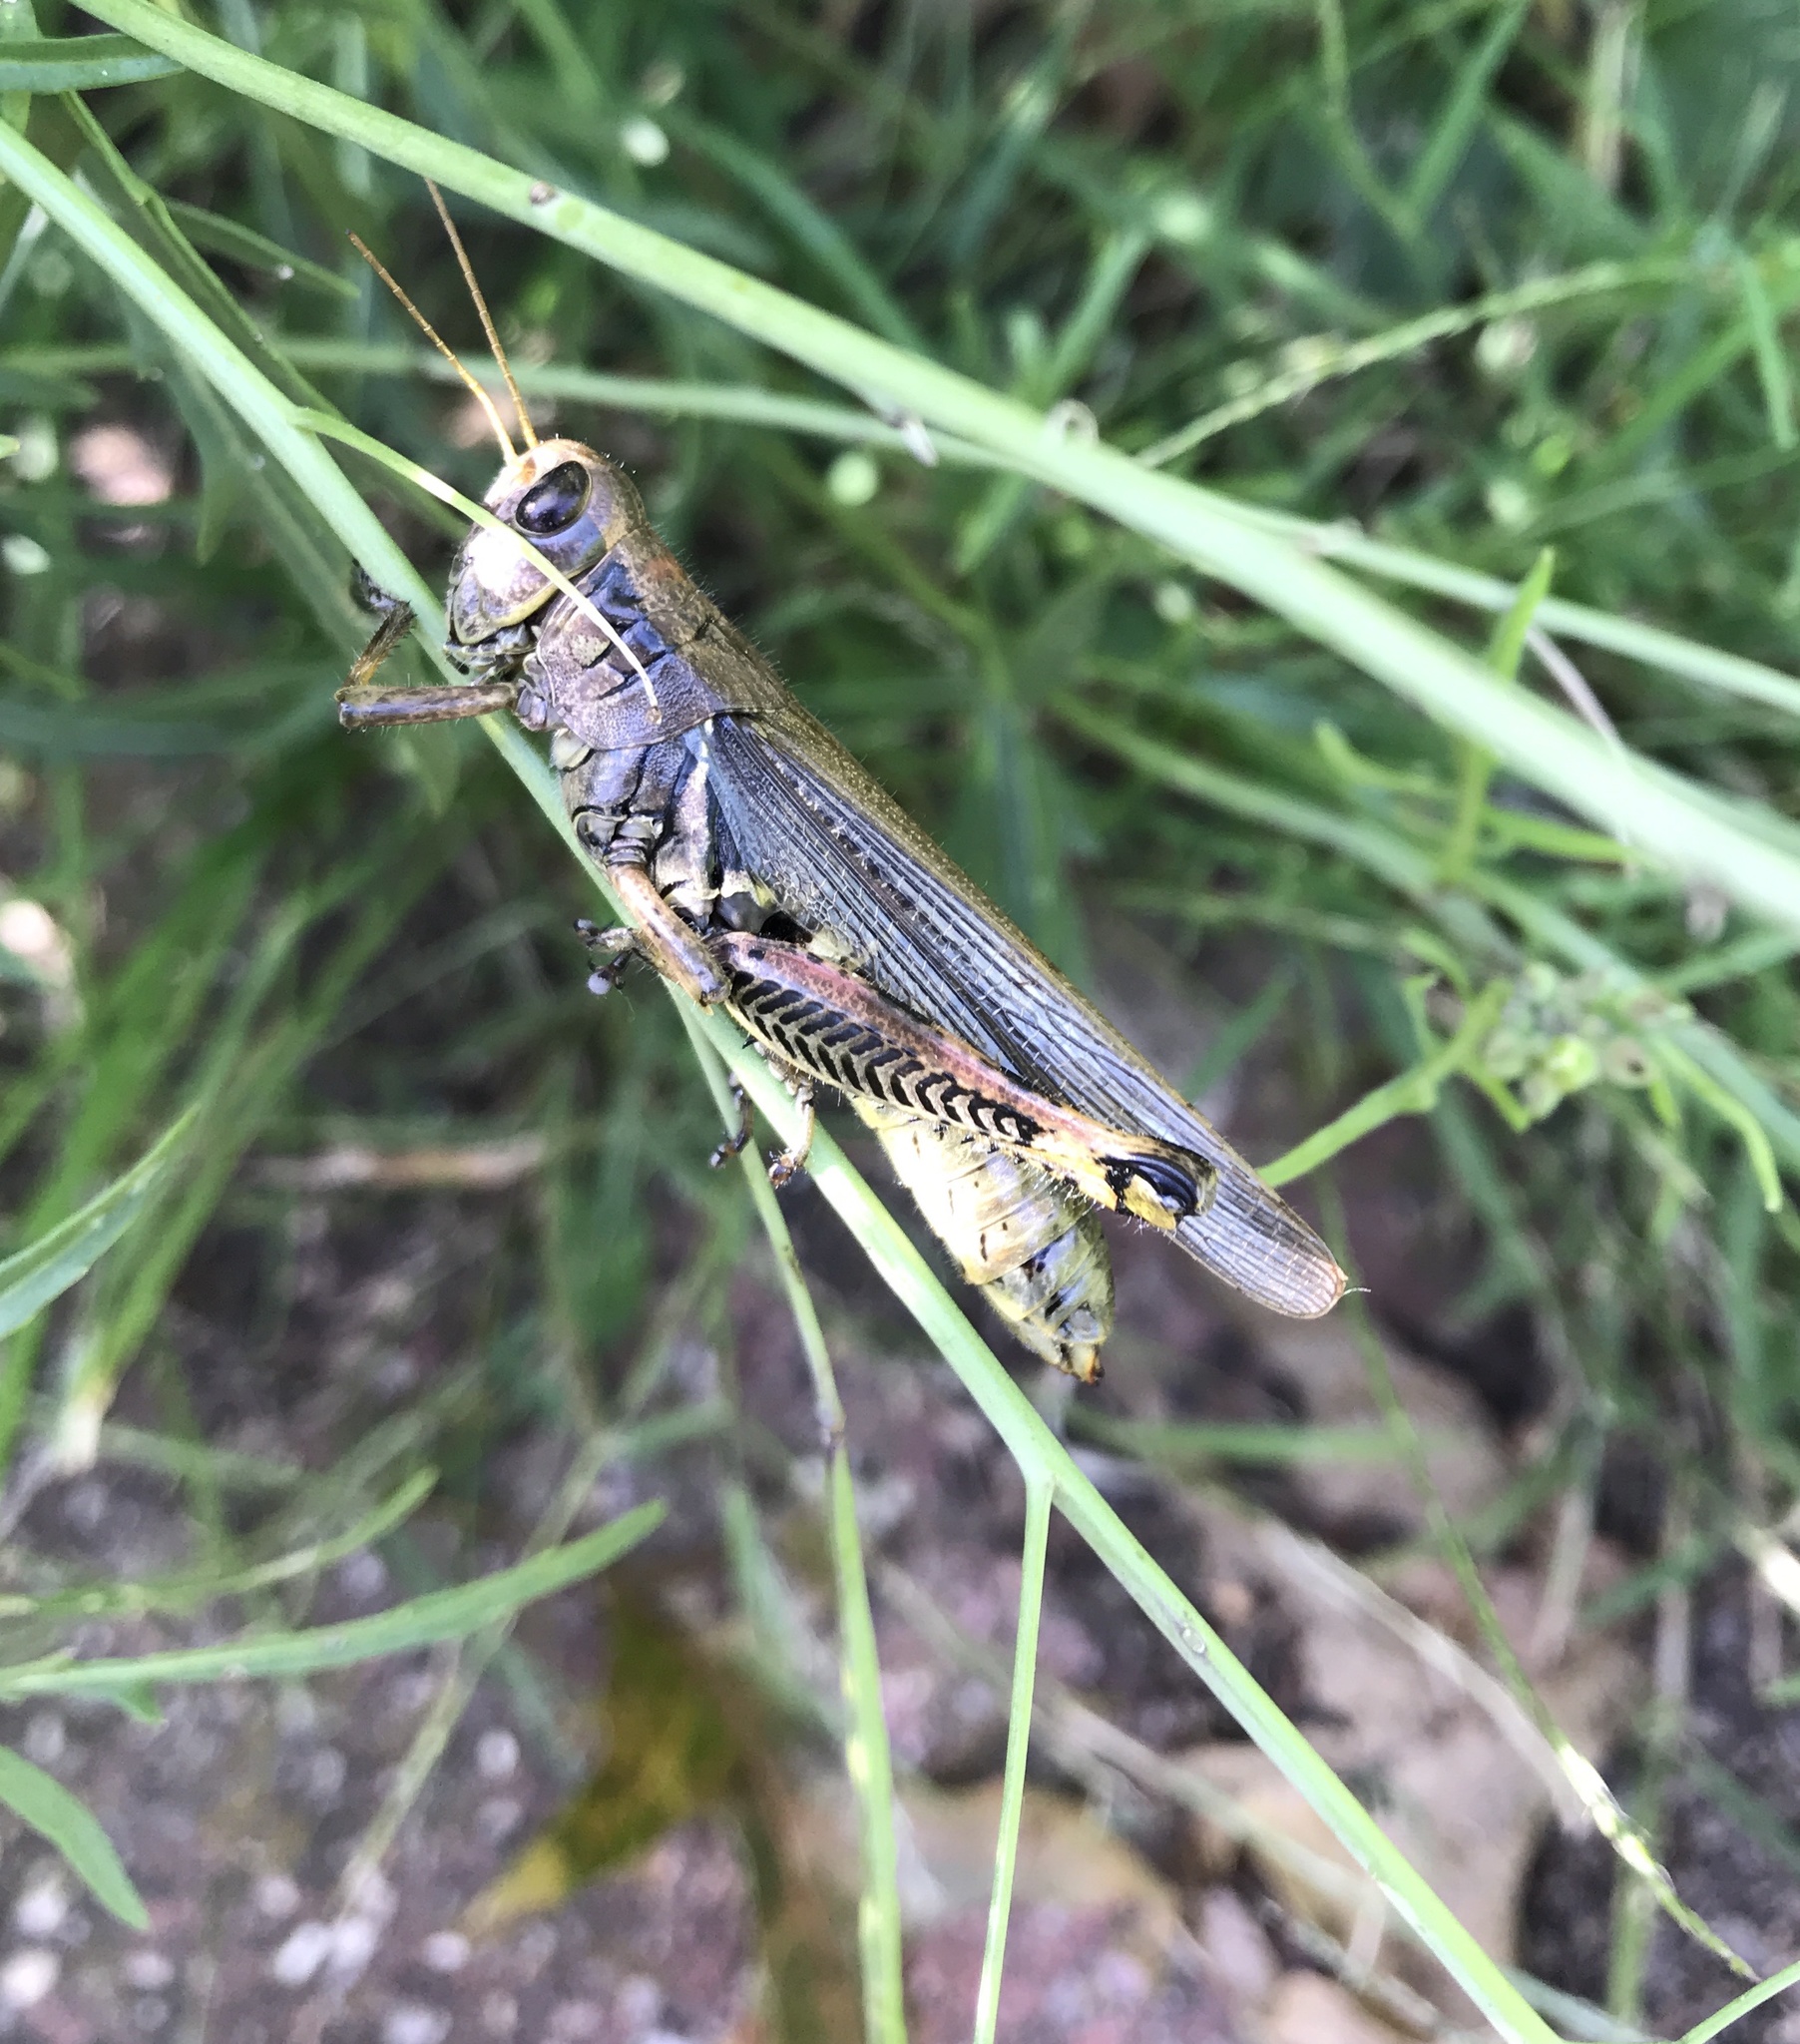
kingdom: Animalia
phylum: Arthropoda
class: Insecta
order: Orthoptera
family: Acrididae
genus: Melanoplus
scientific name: Melanoplus differentialis
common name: Differential grasshopper
